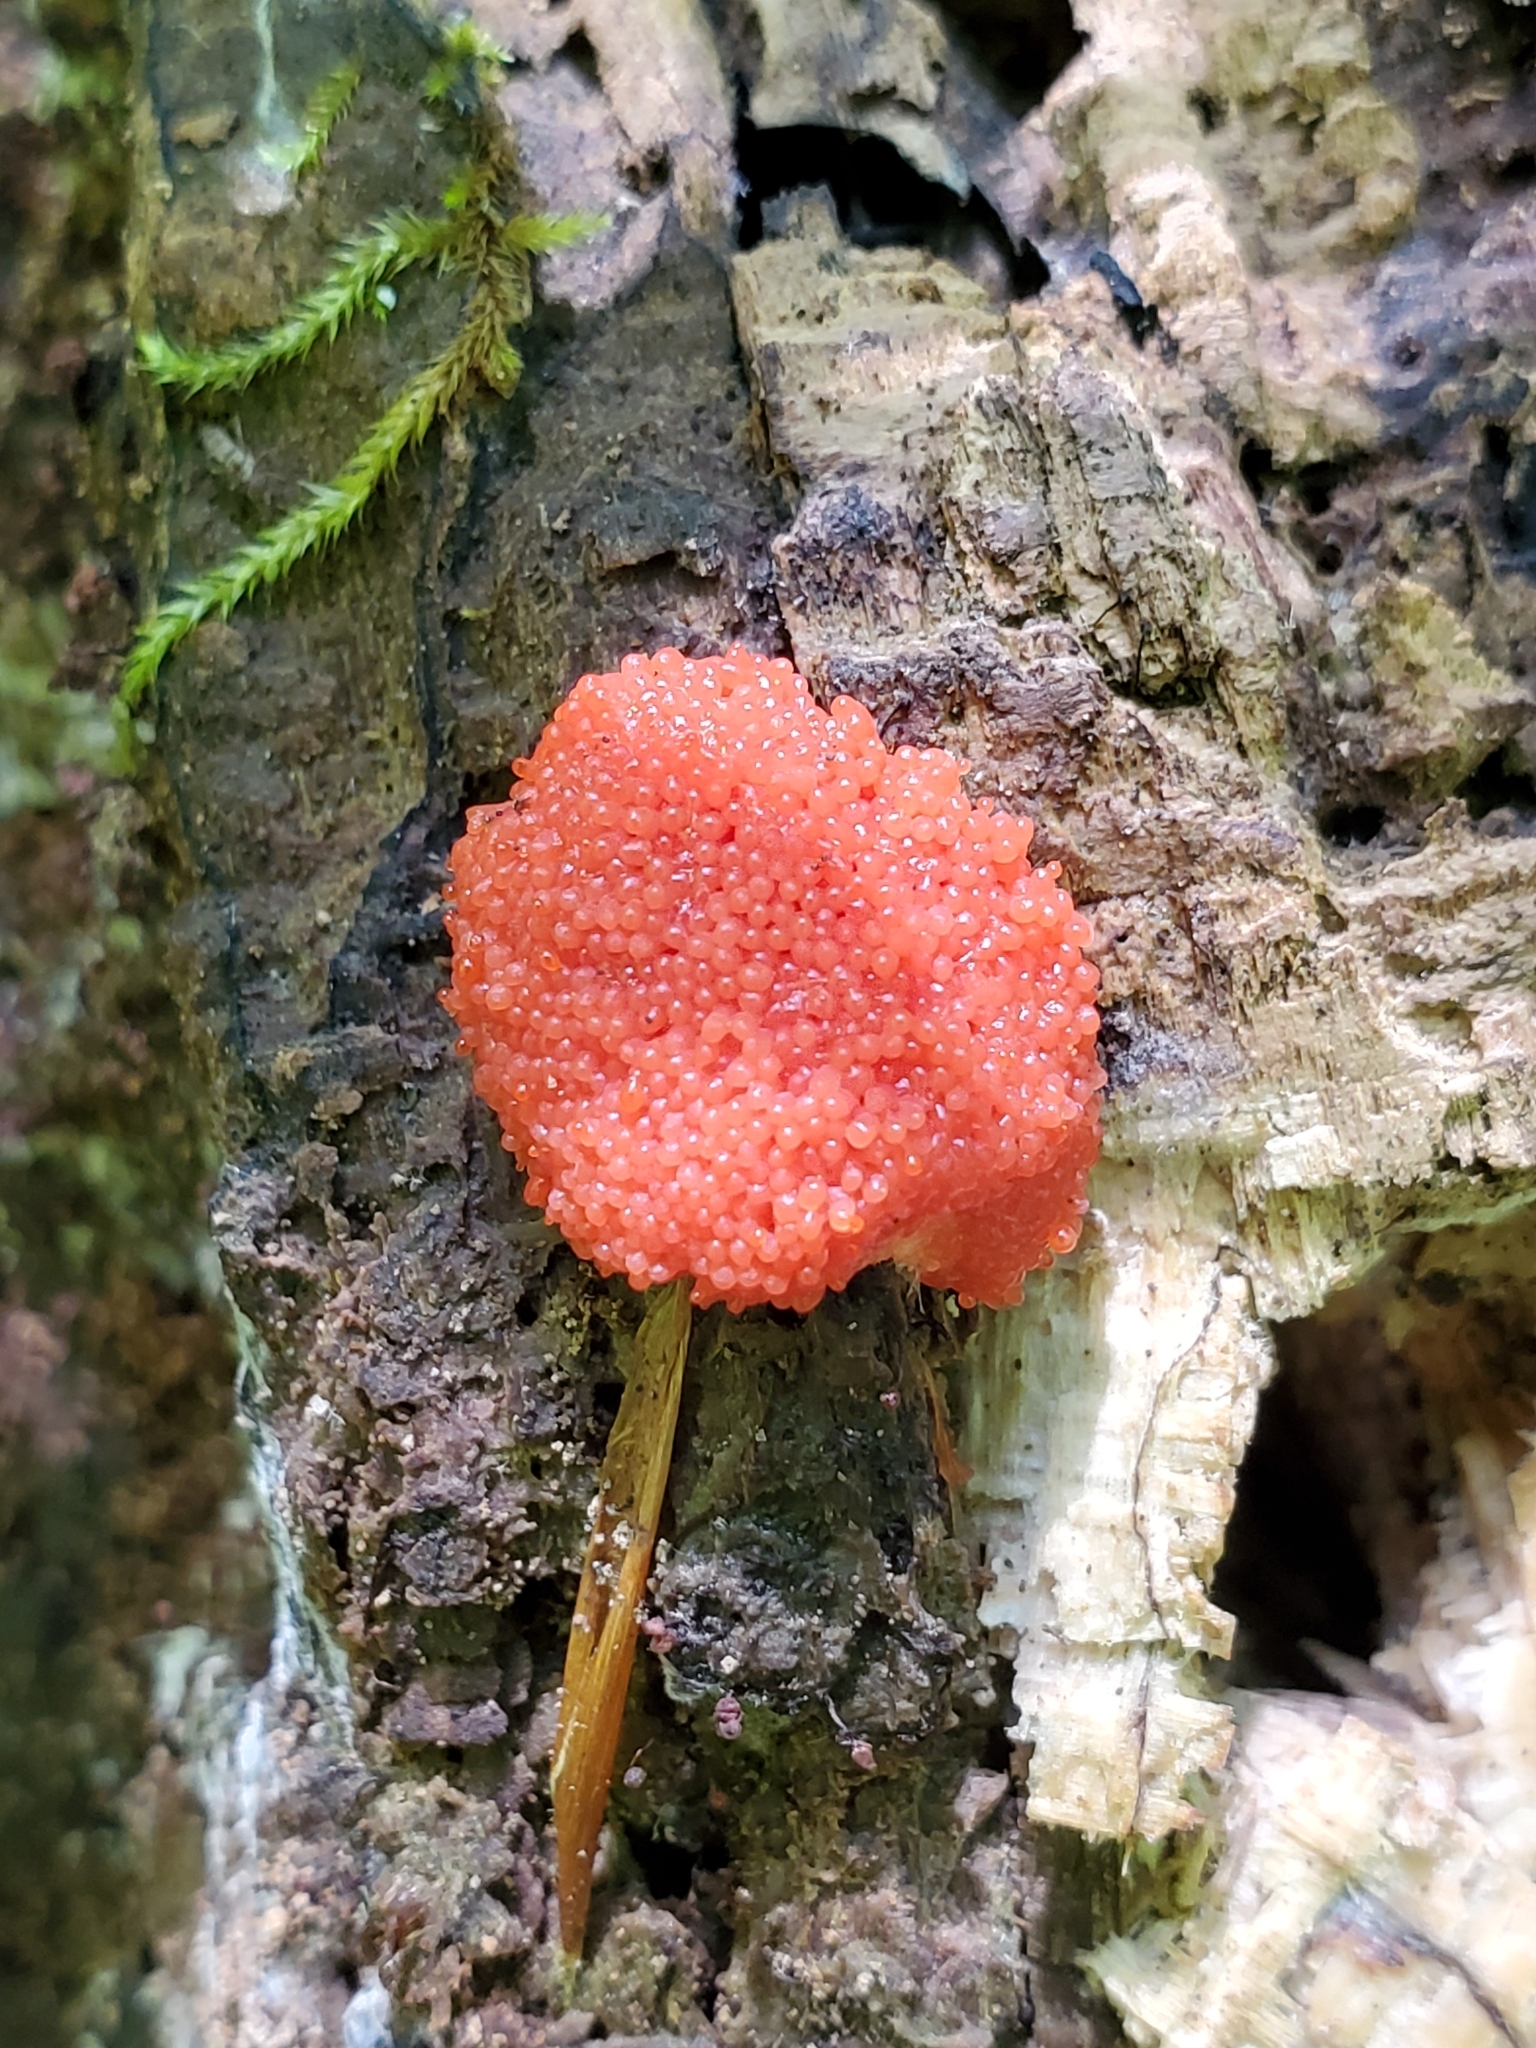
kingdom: Protozoa
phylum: Mycetozoa
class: Myxomycetes
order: Cribrariales
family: Tubiferaceae
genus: Tubifera
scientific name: Tubifera ferruginosa
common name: Red raspberry slime mold
